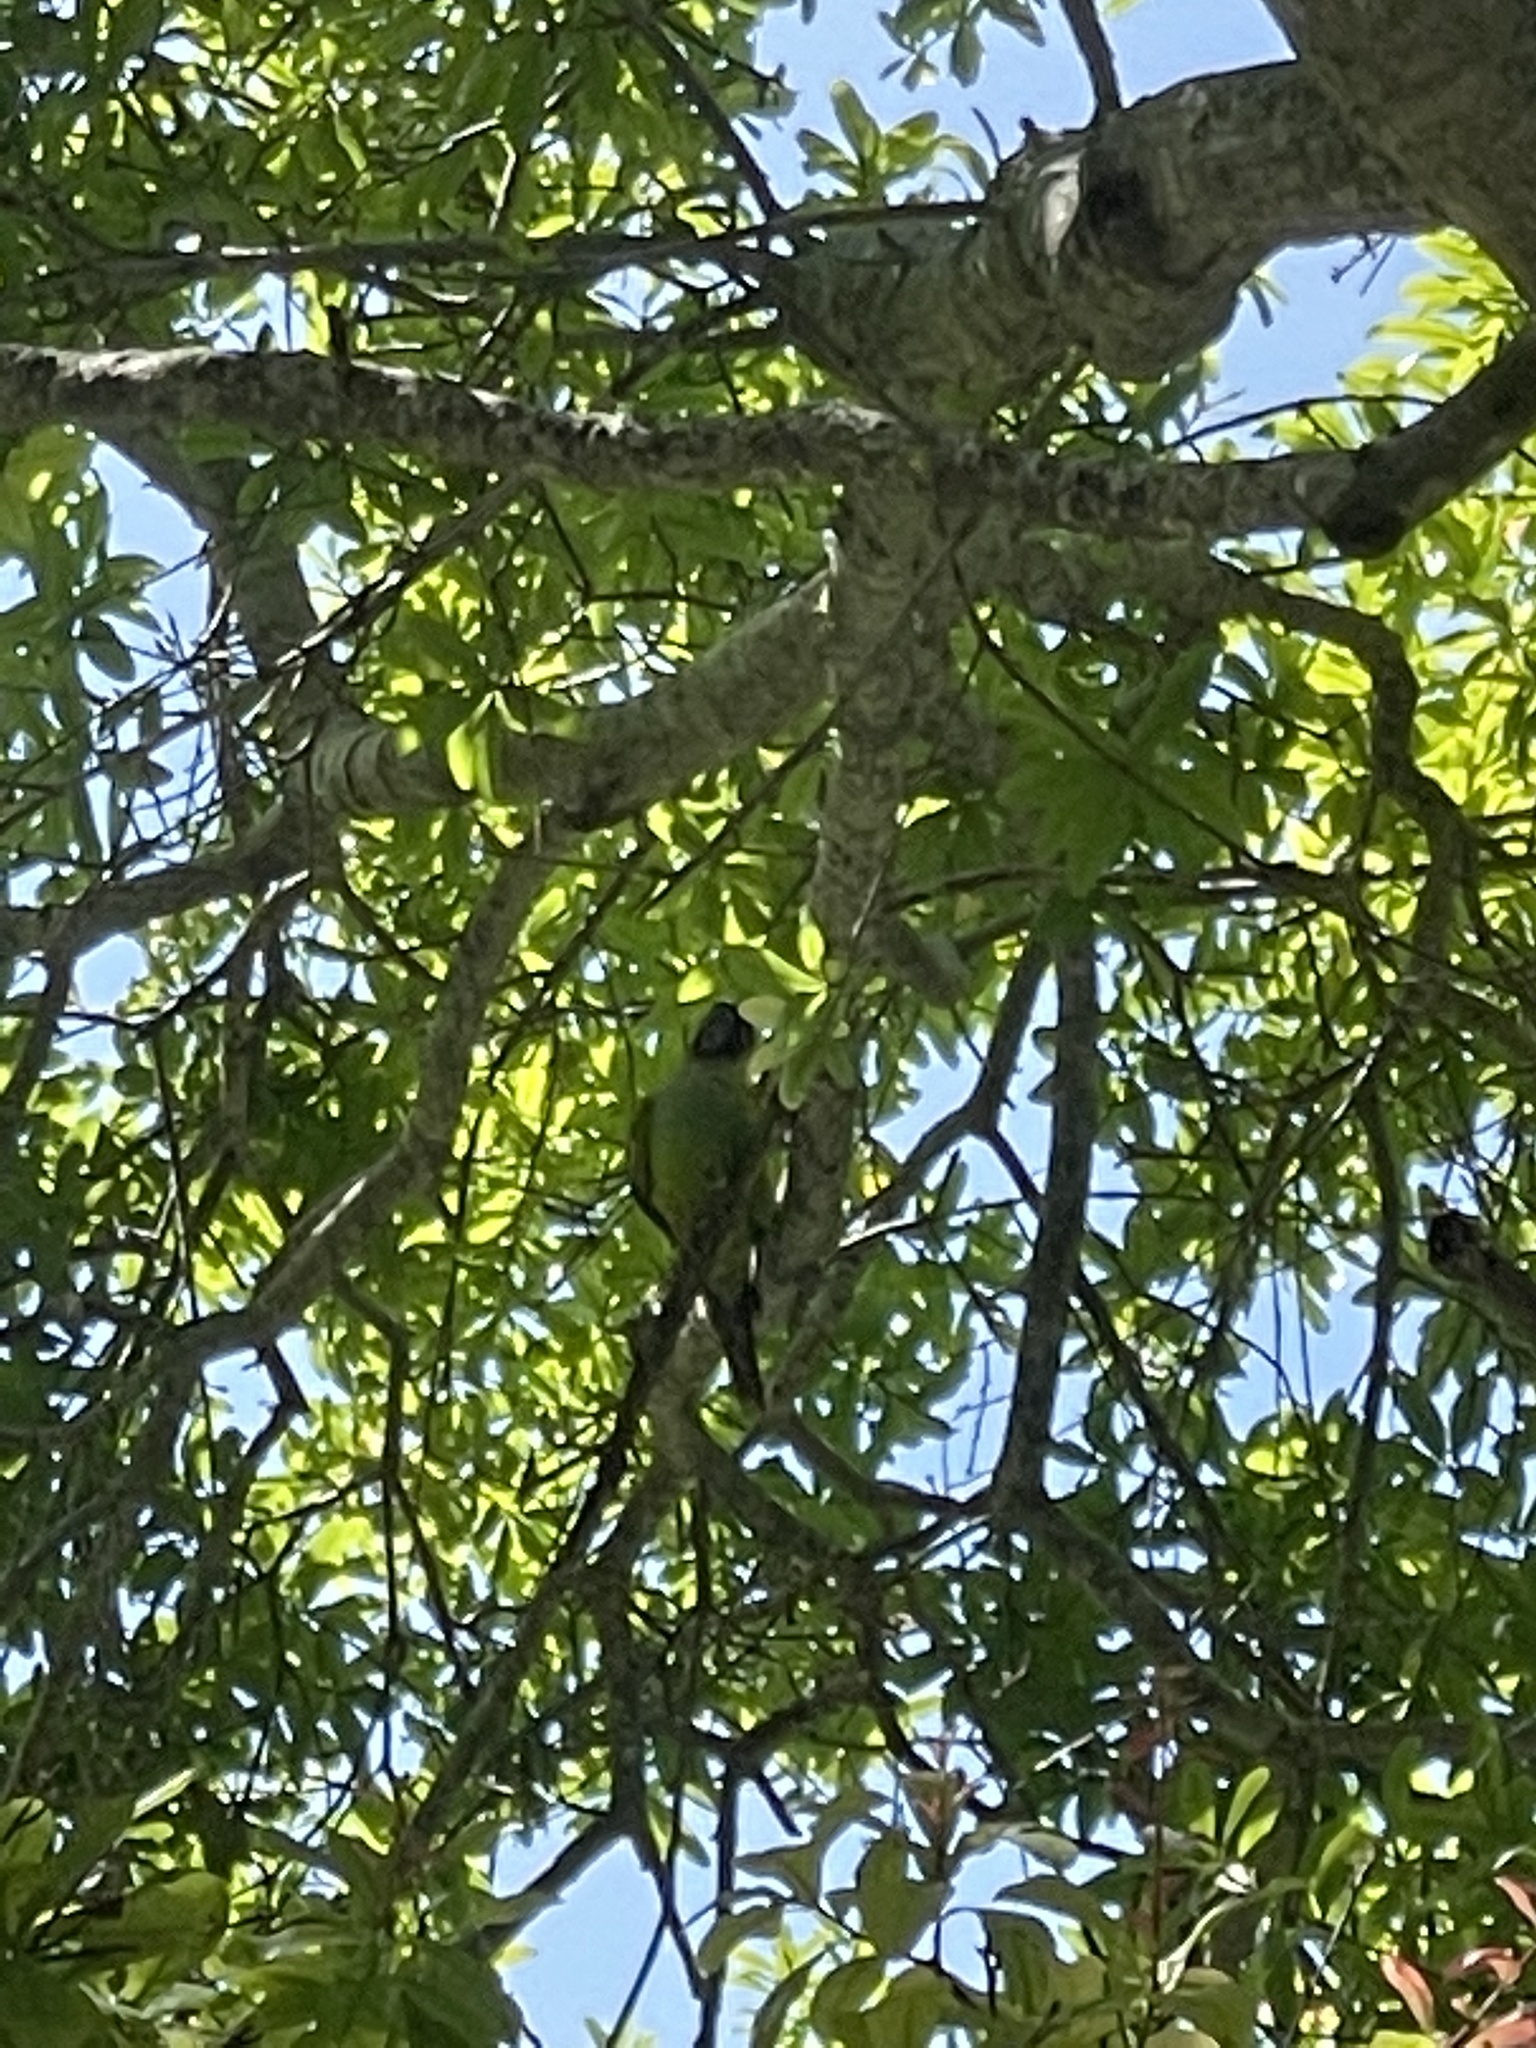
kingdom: Animalia
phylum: Chordata
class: Aves
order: Psittaciformes
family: Psittacidae
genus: Nandayus
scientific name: Nandayus nenday
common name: Nanday parakeet
